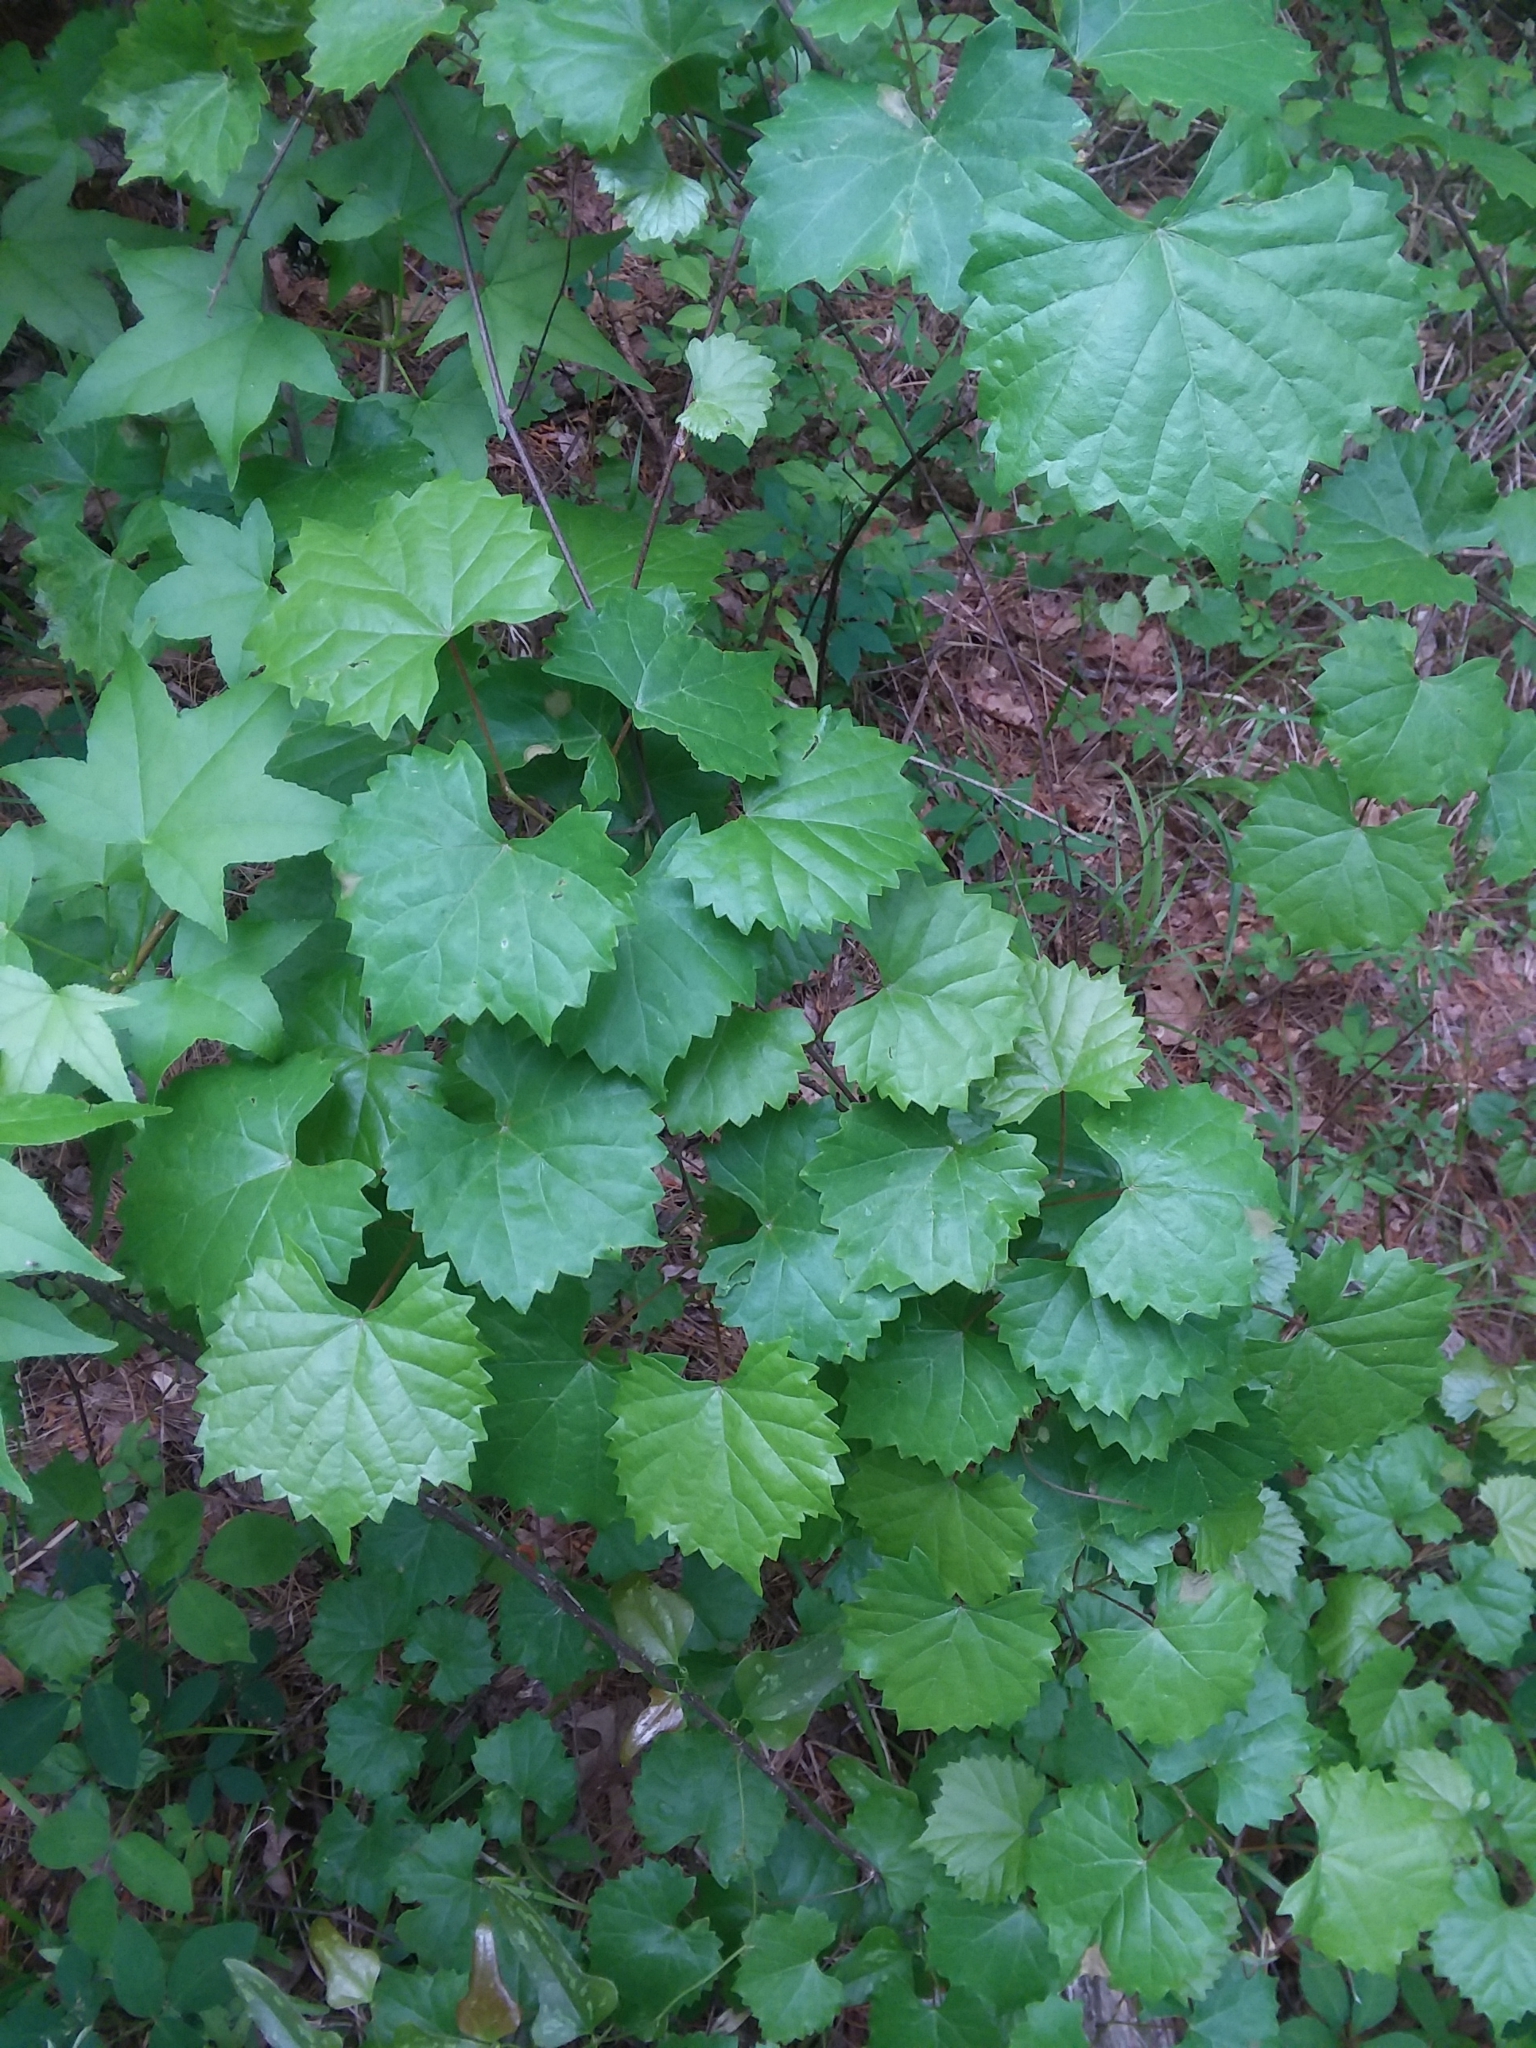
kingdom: Plantae
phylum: Tracheophyta
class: Magnoliopsida
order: Vitales
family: Vitaceae
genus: Vitis
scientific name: Vitis rotundifolia
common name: Muscadine grape
